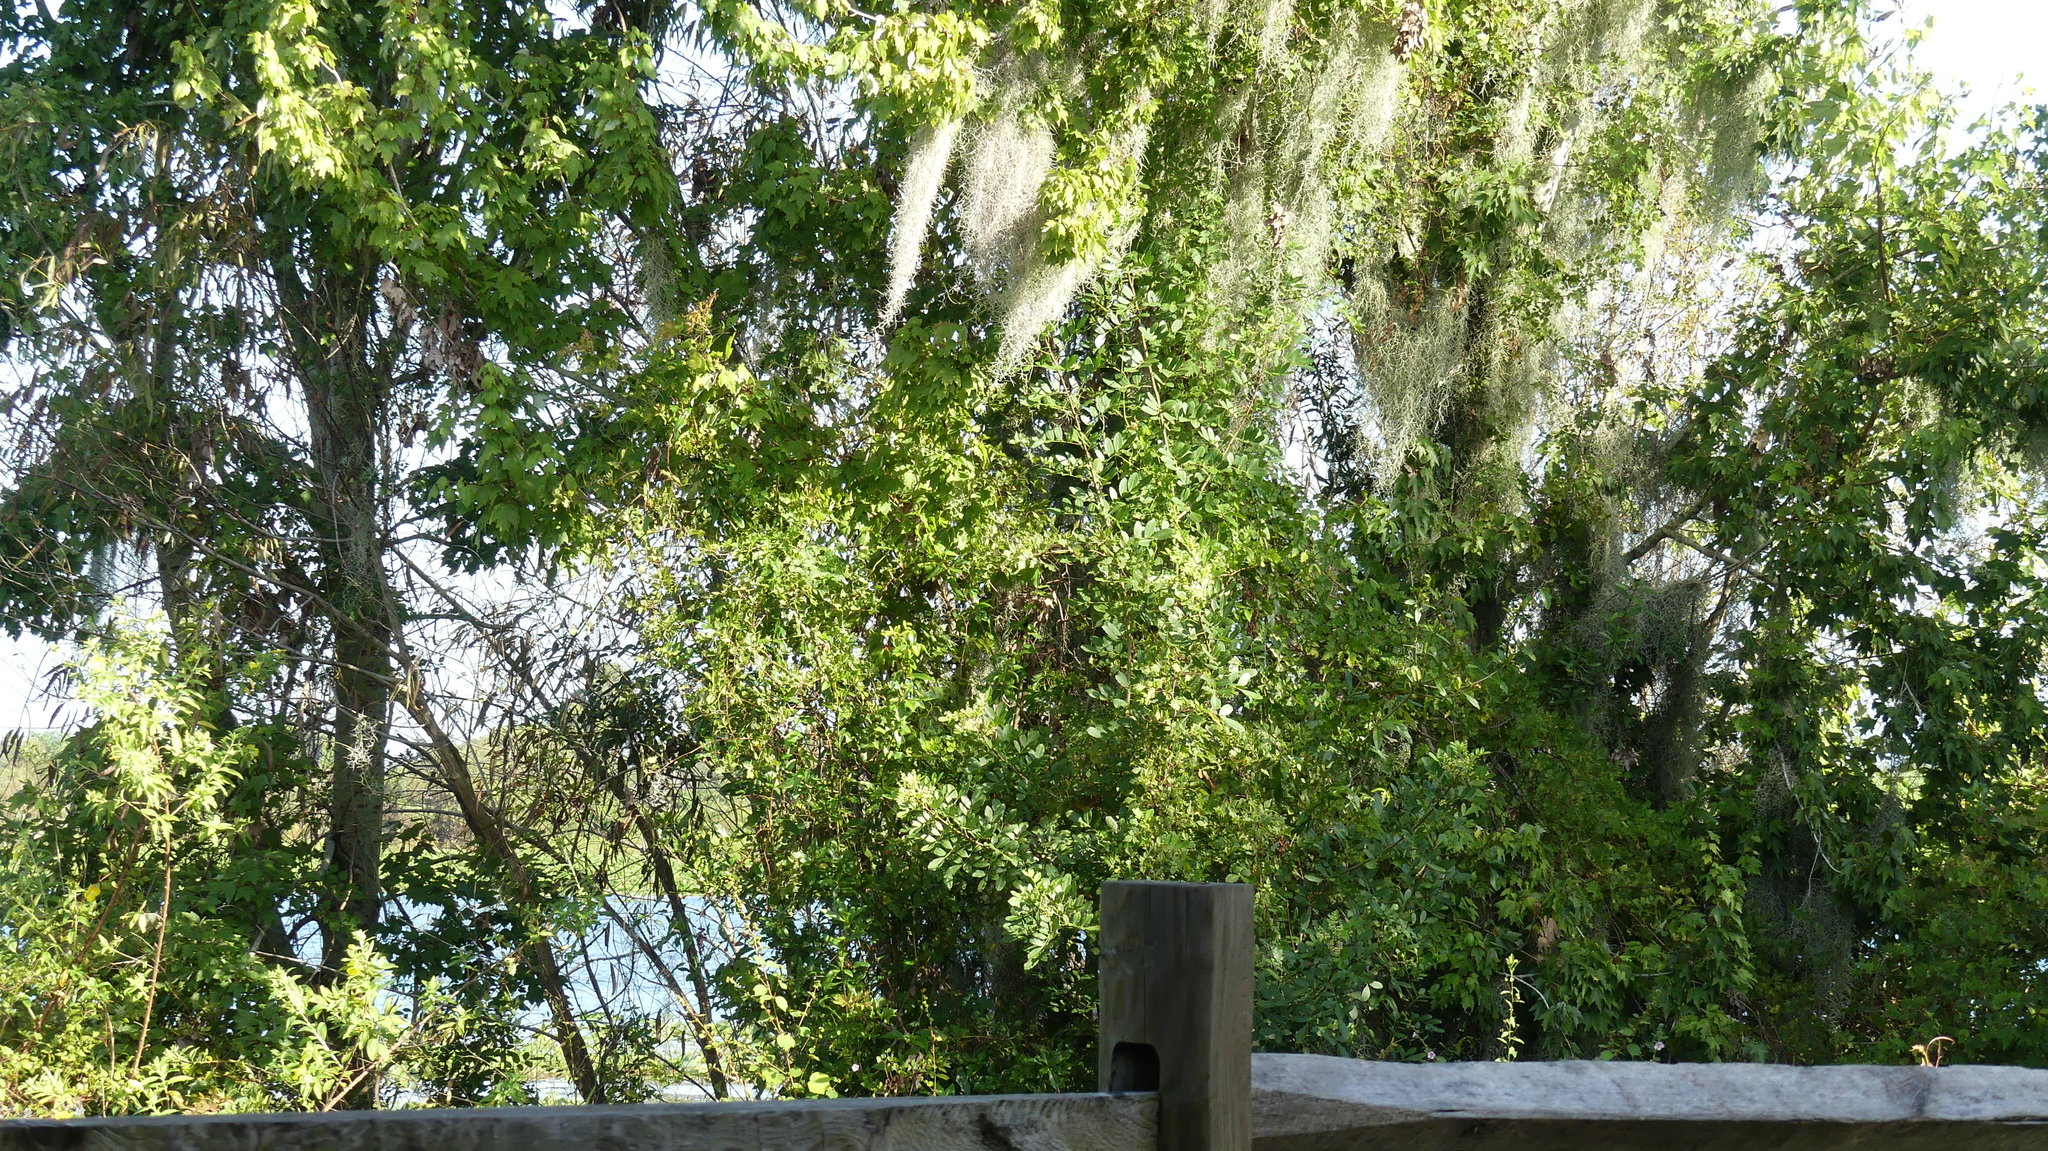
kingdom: Plantae
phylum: Tracheophyta
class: Magnoliopsida
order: Sapindales
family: Anacardiaceae
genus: Schinus
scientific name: Schinus terebinthifolia
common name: Brazilian peppertree
